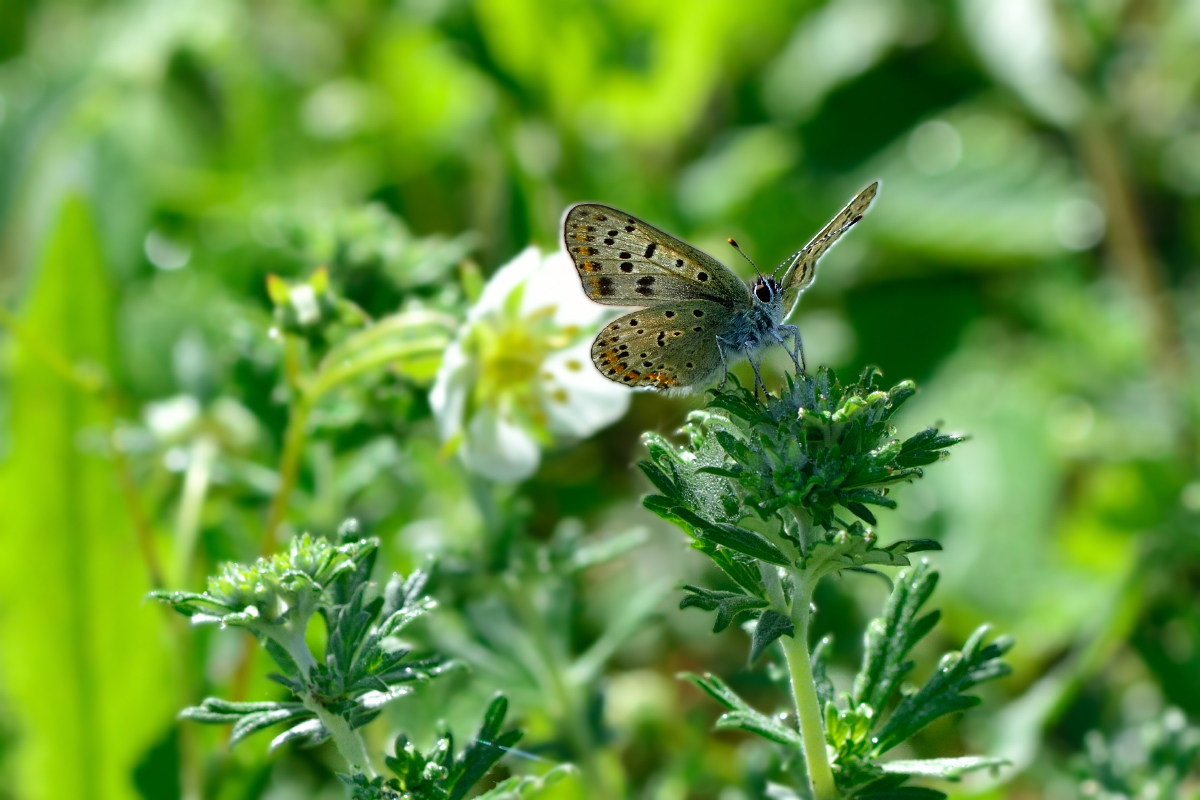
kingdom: Animalia
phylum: Arthropoda
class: Insecta
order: Lepidoptera
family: Lycaenidae
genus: Loweia
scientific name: Loweia tityrus
